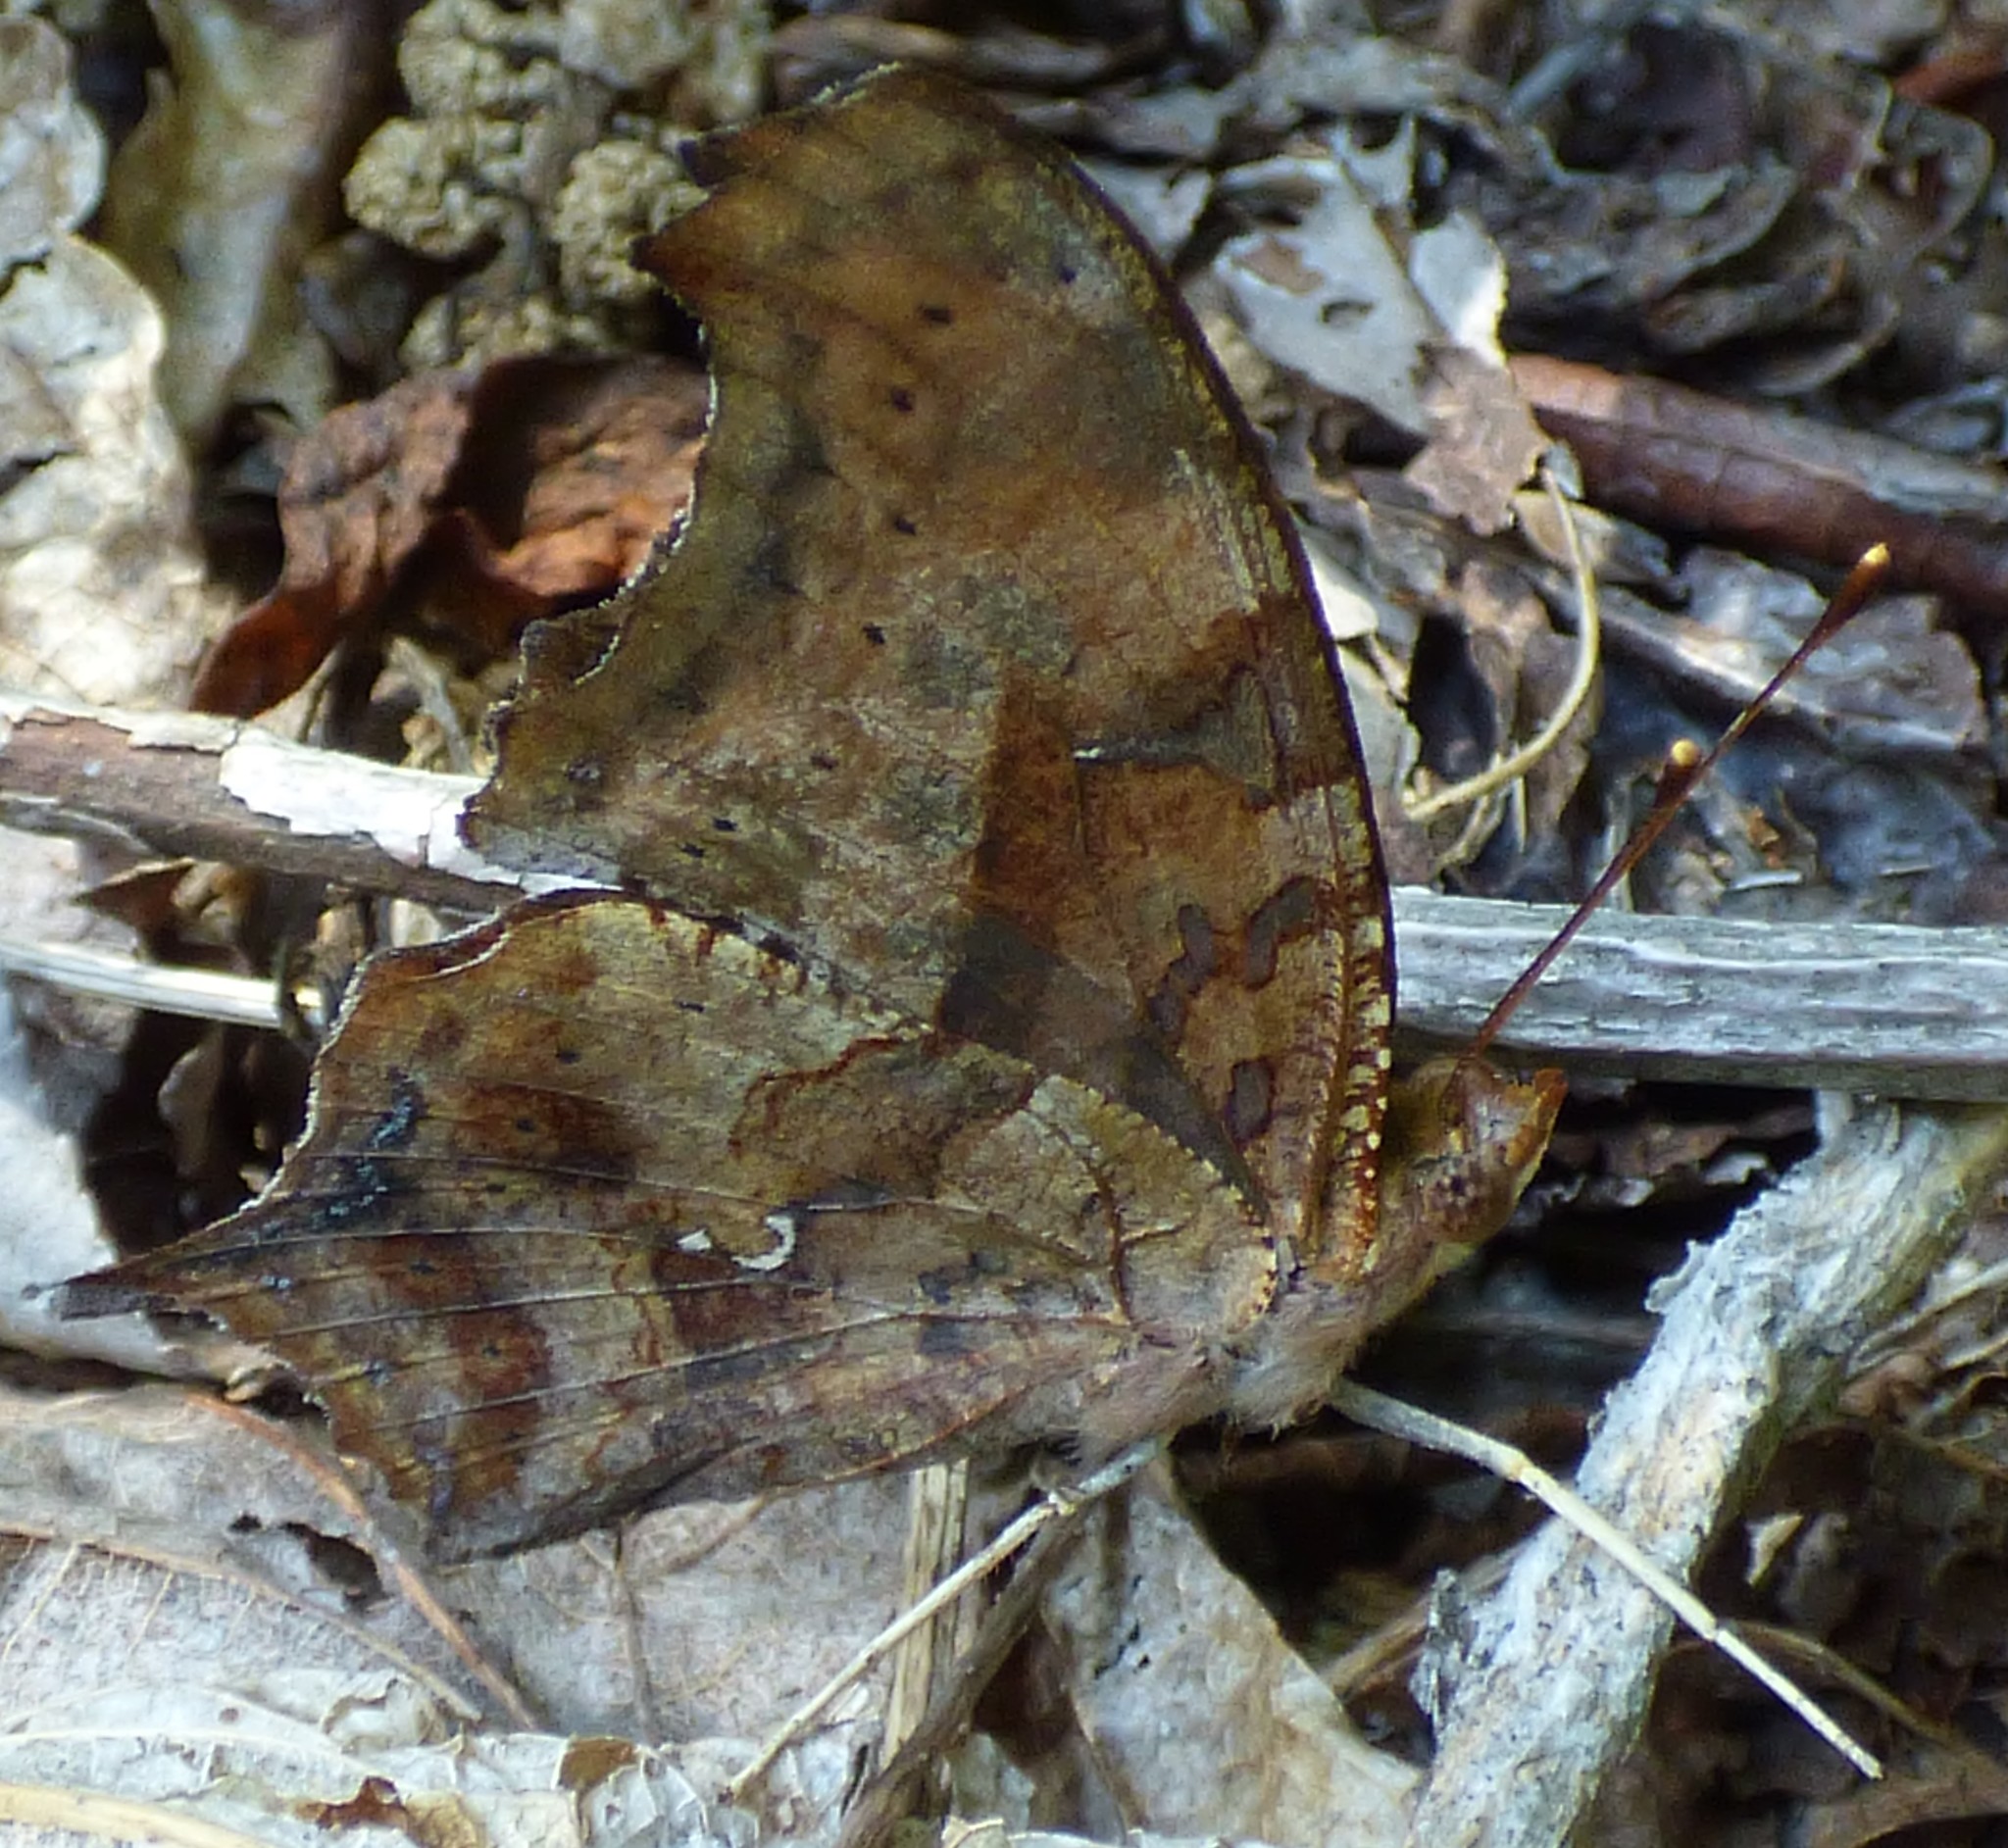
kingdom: Animalia
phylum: Arthropoda
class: Insecta
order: Lepidoptera
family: Nymphalidae
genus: Polygonia
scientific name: Polygonia interrogationis
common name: Question mark
